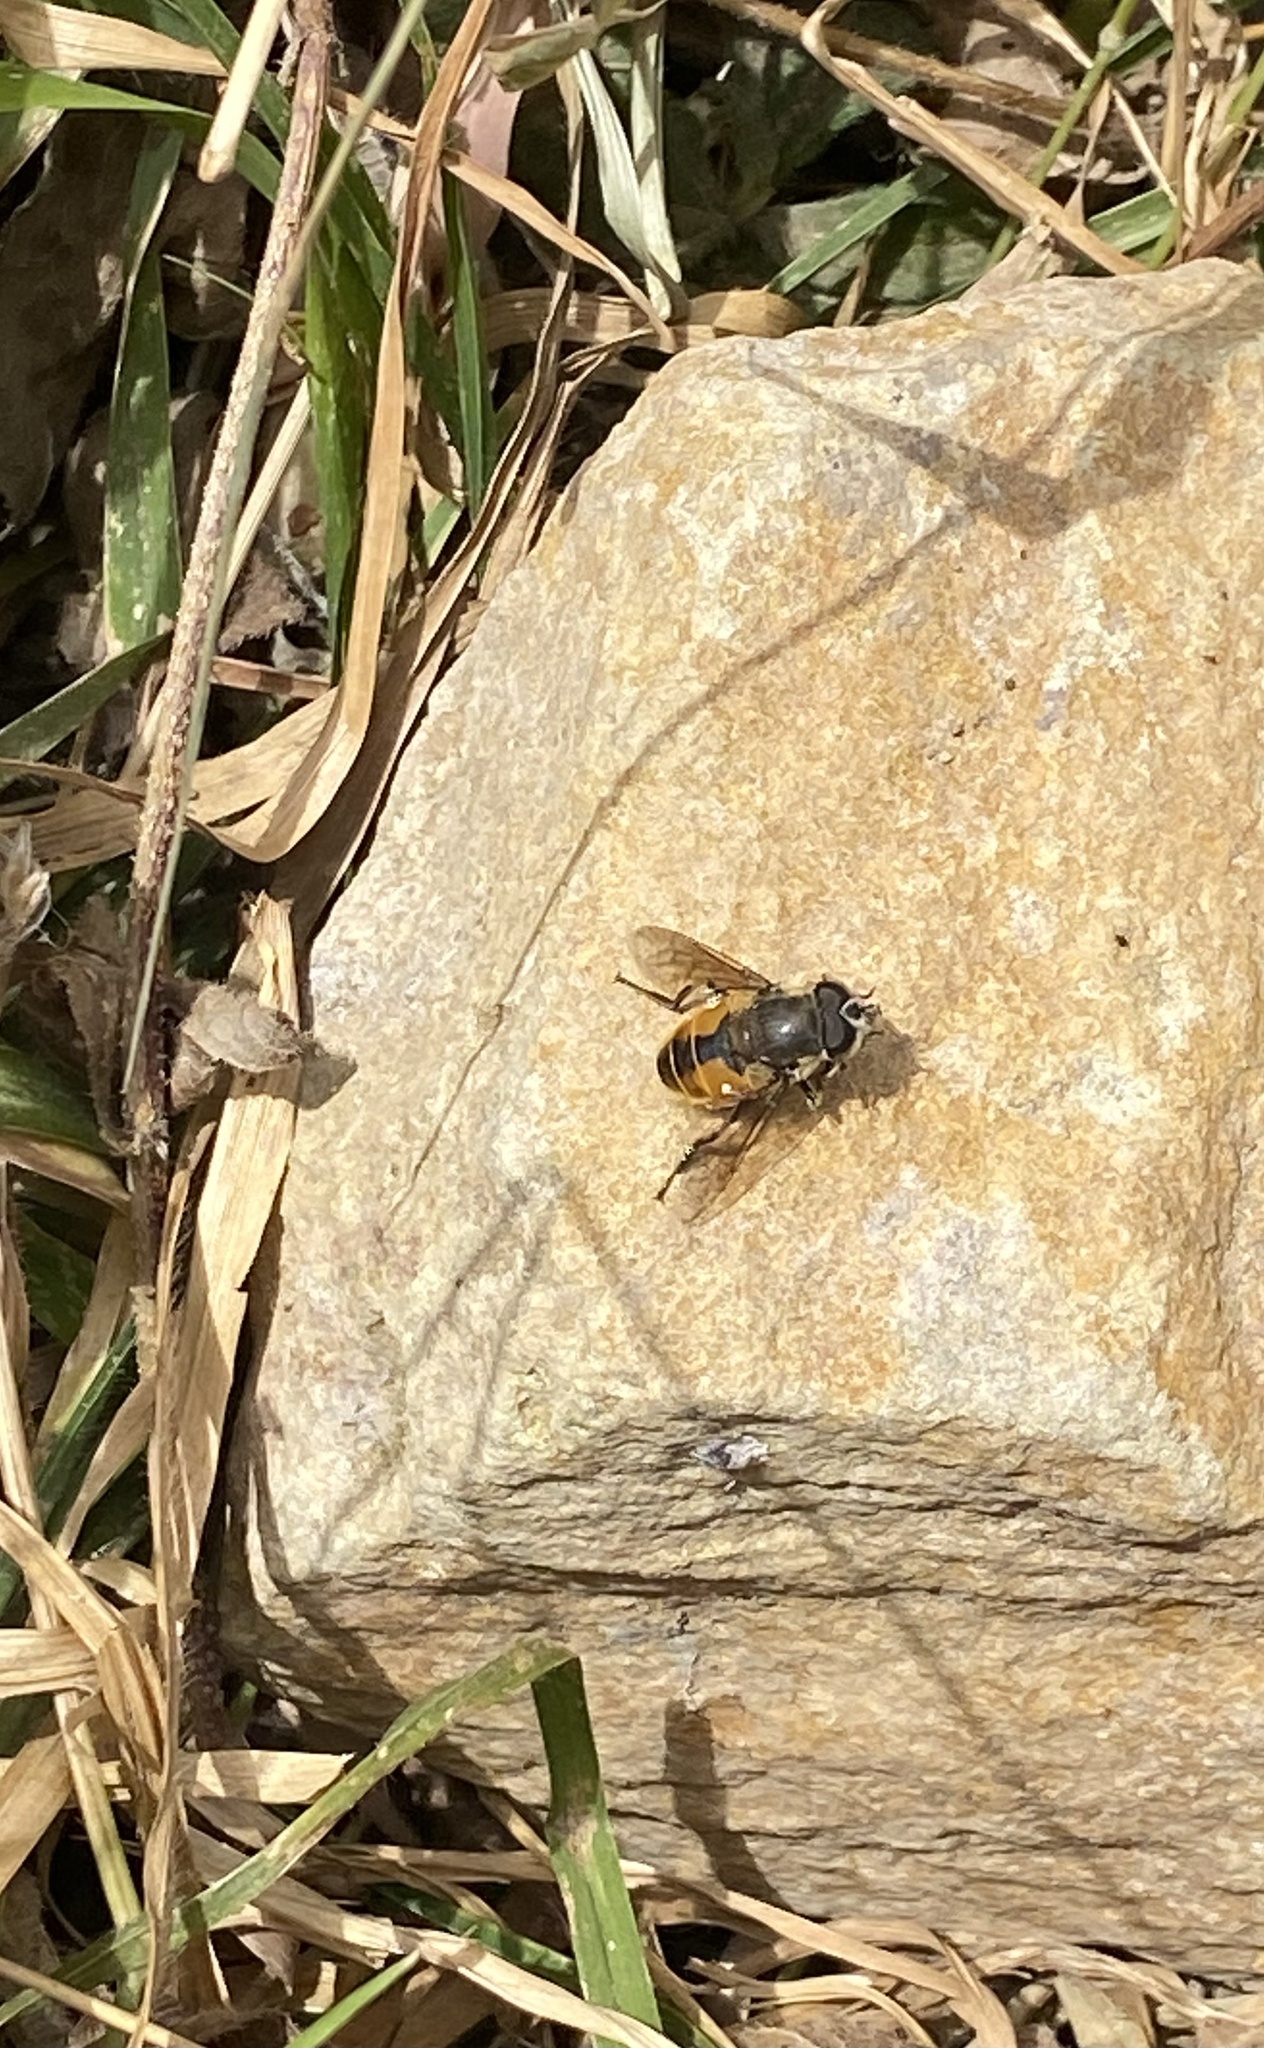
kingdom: Animalia
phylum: Arthropoda
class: Insecta
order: Diptera
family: Syrphidae
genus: Eristalis
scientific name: Eristalis bogotensis
